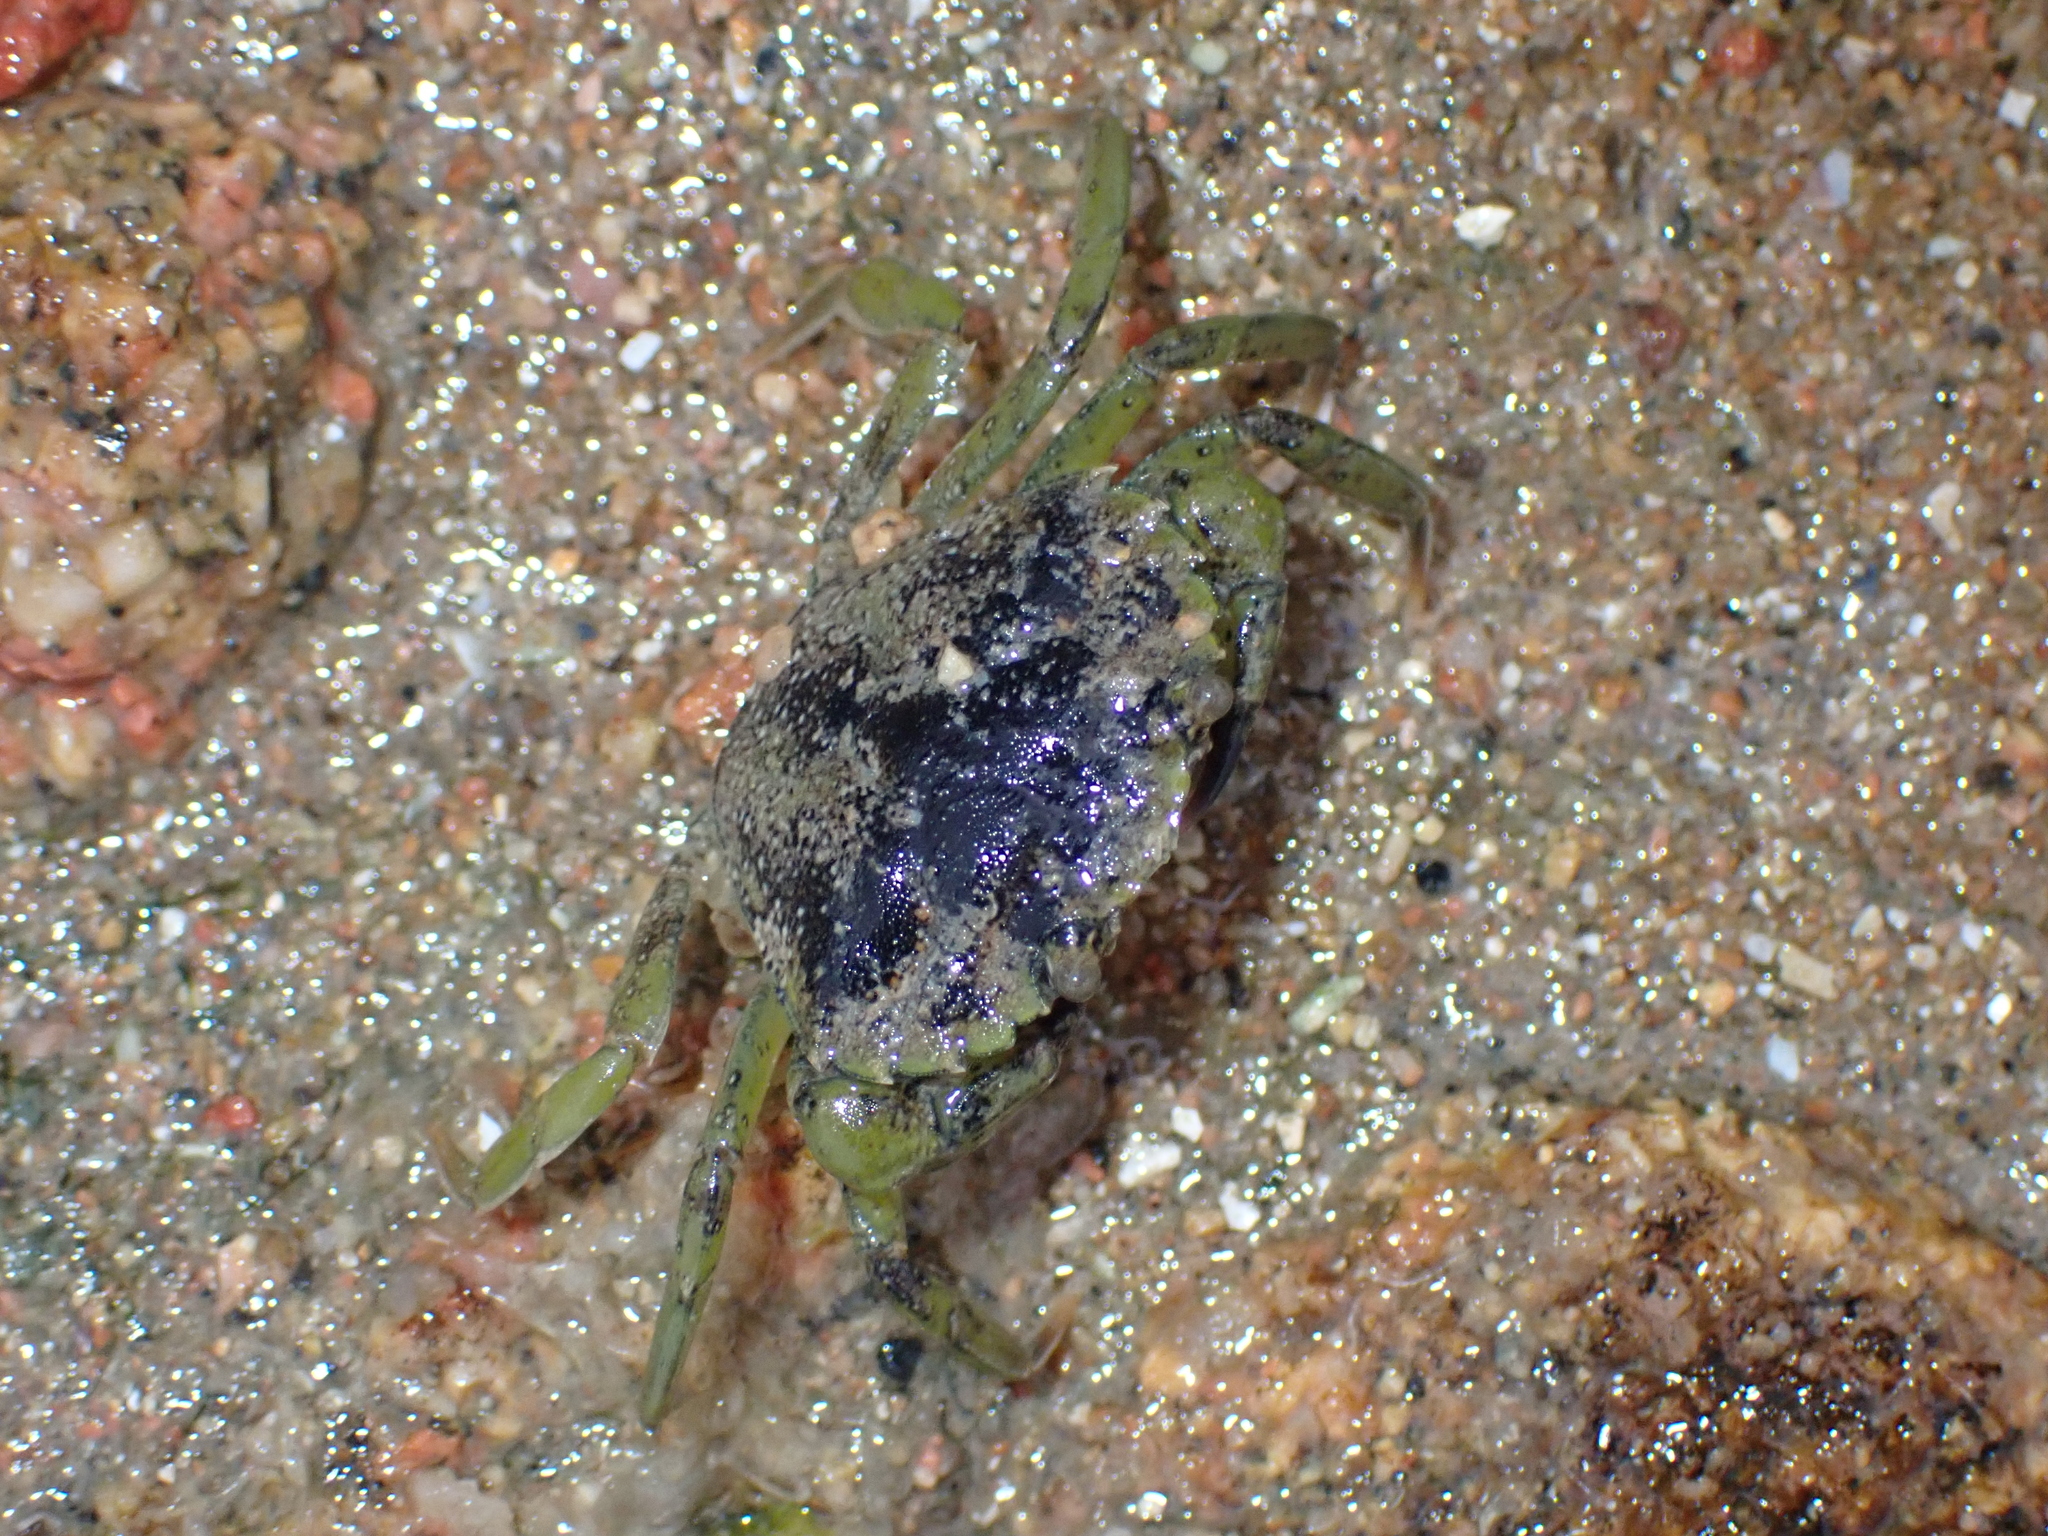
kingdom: Animalia
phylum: Arthropoda
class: Malacostraca
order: Decapoda
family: Carcinidae
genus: Carcinus
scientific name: Carcinus maenas
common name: European green crab
